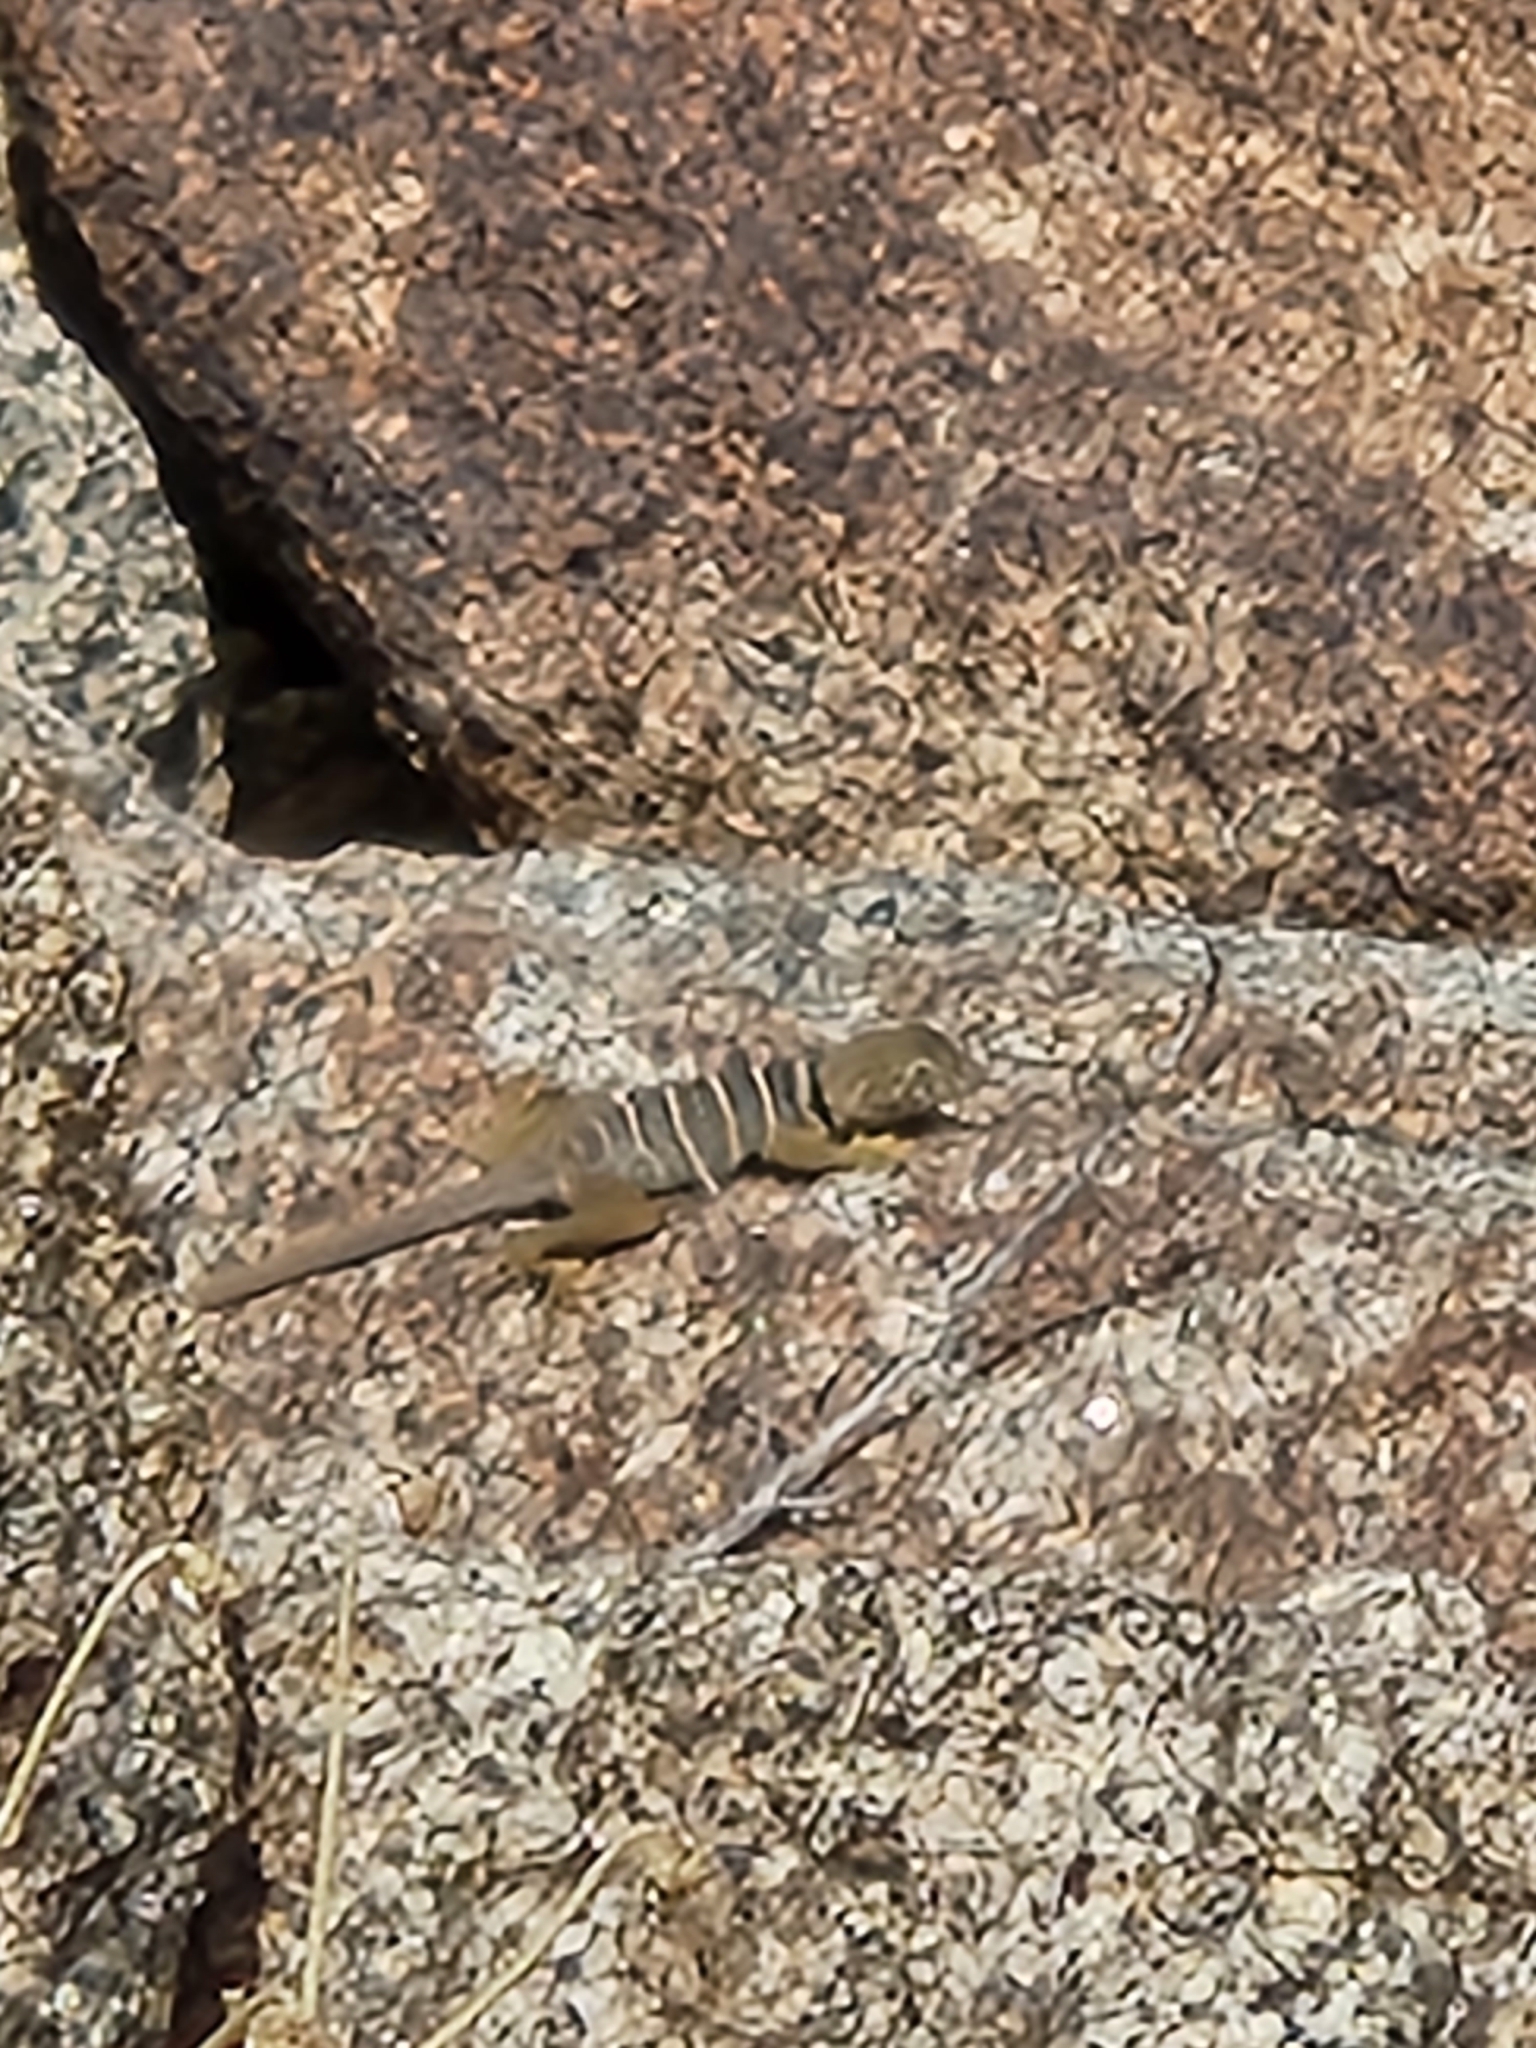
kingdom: Animalia
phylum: Chordata
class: Squamata
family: Crotaphytidae
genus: Crotaphytus
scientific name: Crotaphytus vestigium
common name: Baja black-collared lizard
